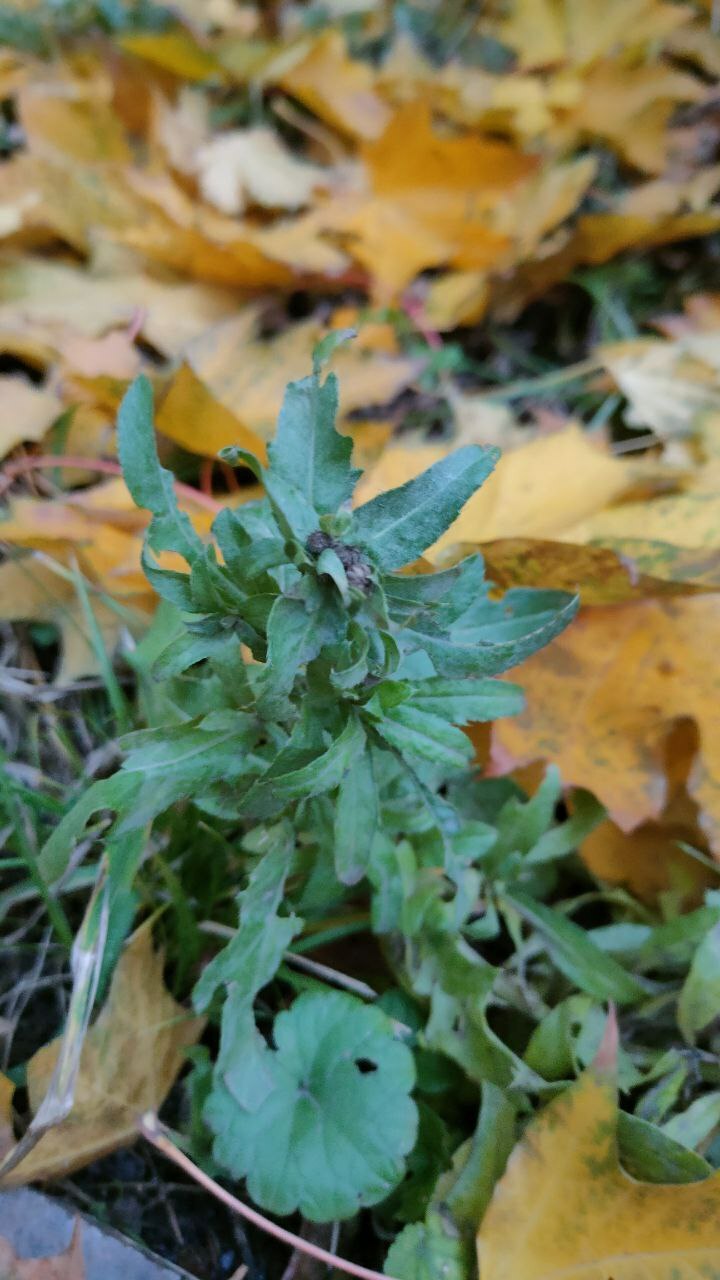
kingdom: Plantae
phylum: Tracheophyta
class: Magnoliopsida
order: Asterales
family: Asteraceae
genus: Cirsium
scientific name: Cirsium arvense
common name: Creeping thistle
